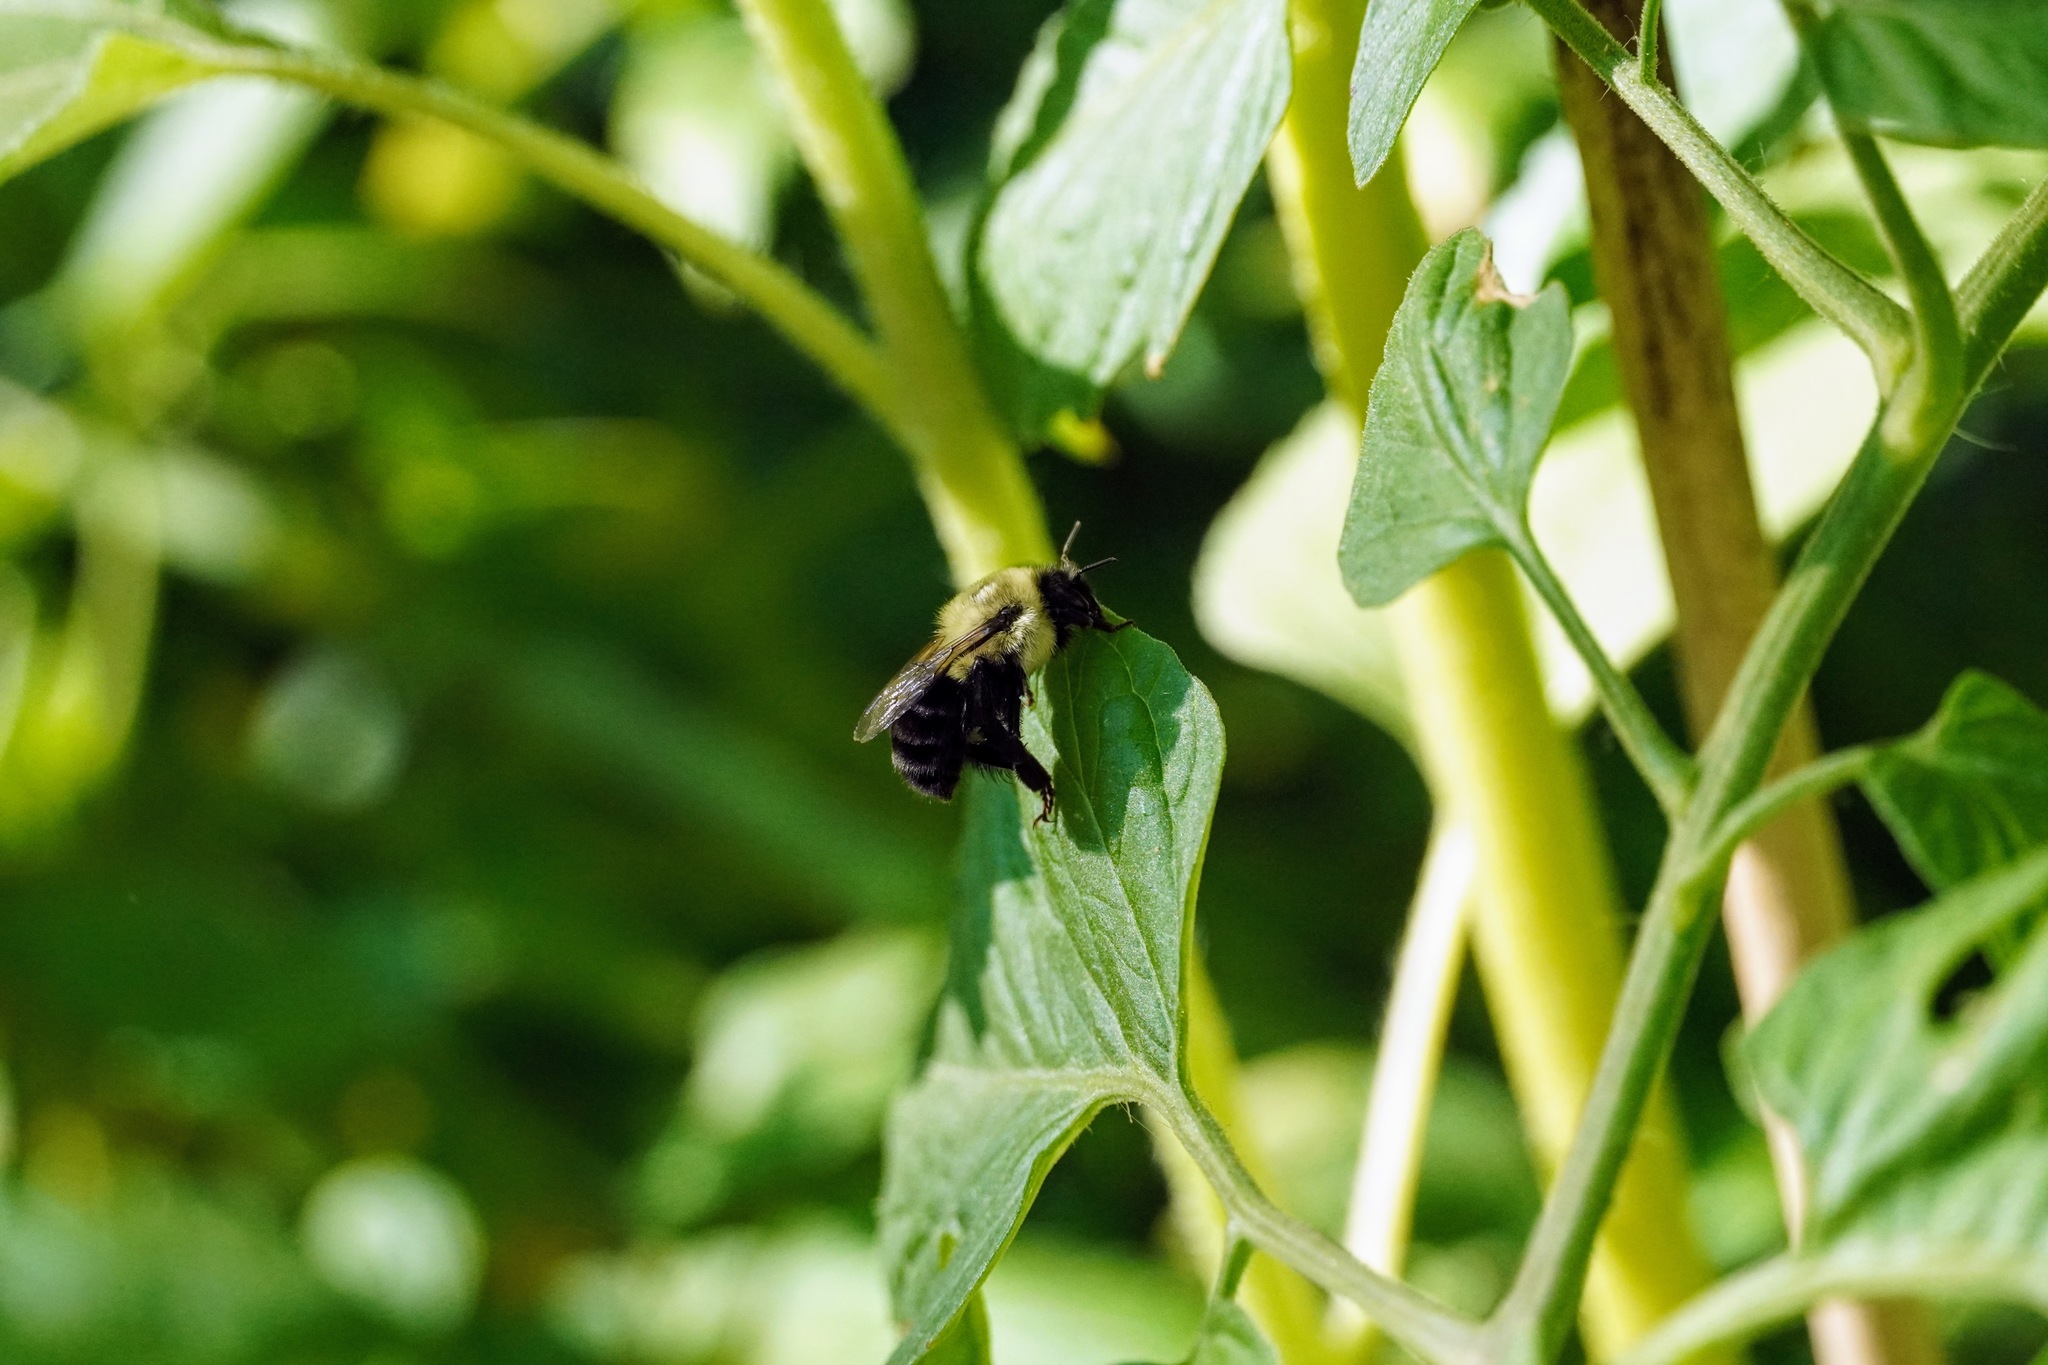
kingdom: Animalia
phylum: Arthropoda
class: Insecta
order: Hymenoptera
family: Apidae
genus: Bombus
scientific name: Bombus vosnesenskii
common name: Vosnesensky bumble bee
